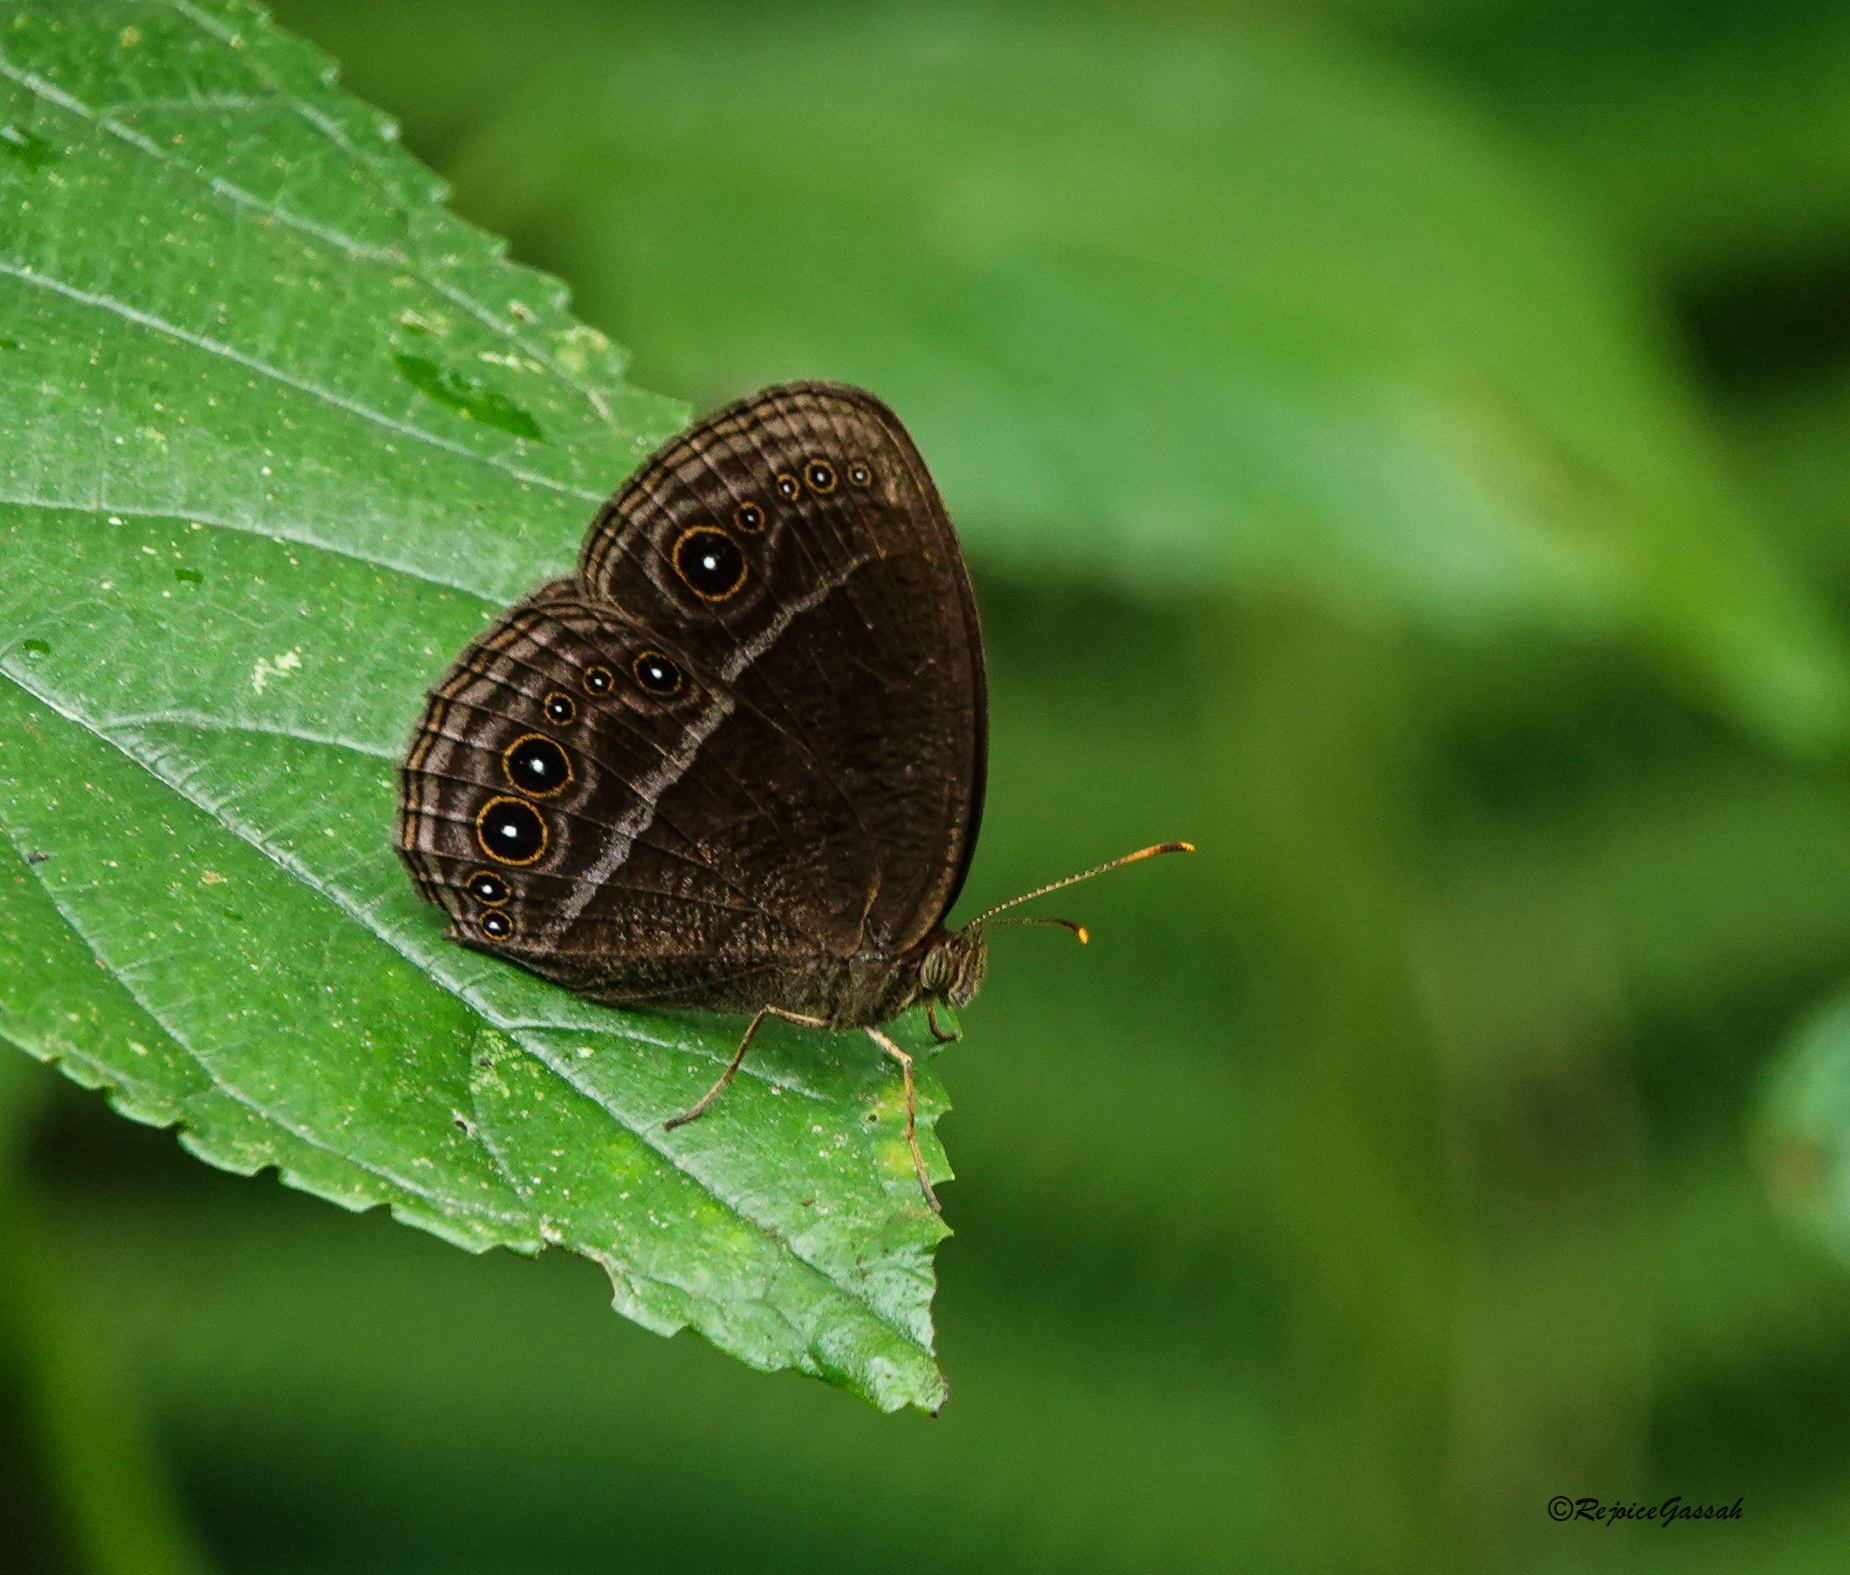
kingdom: Animalia
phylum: Arthropoda
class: Insecta
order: Lepidoptera
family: Nymphalidae
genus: Mycalesis
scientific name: Mycalesis Telinga inopia
